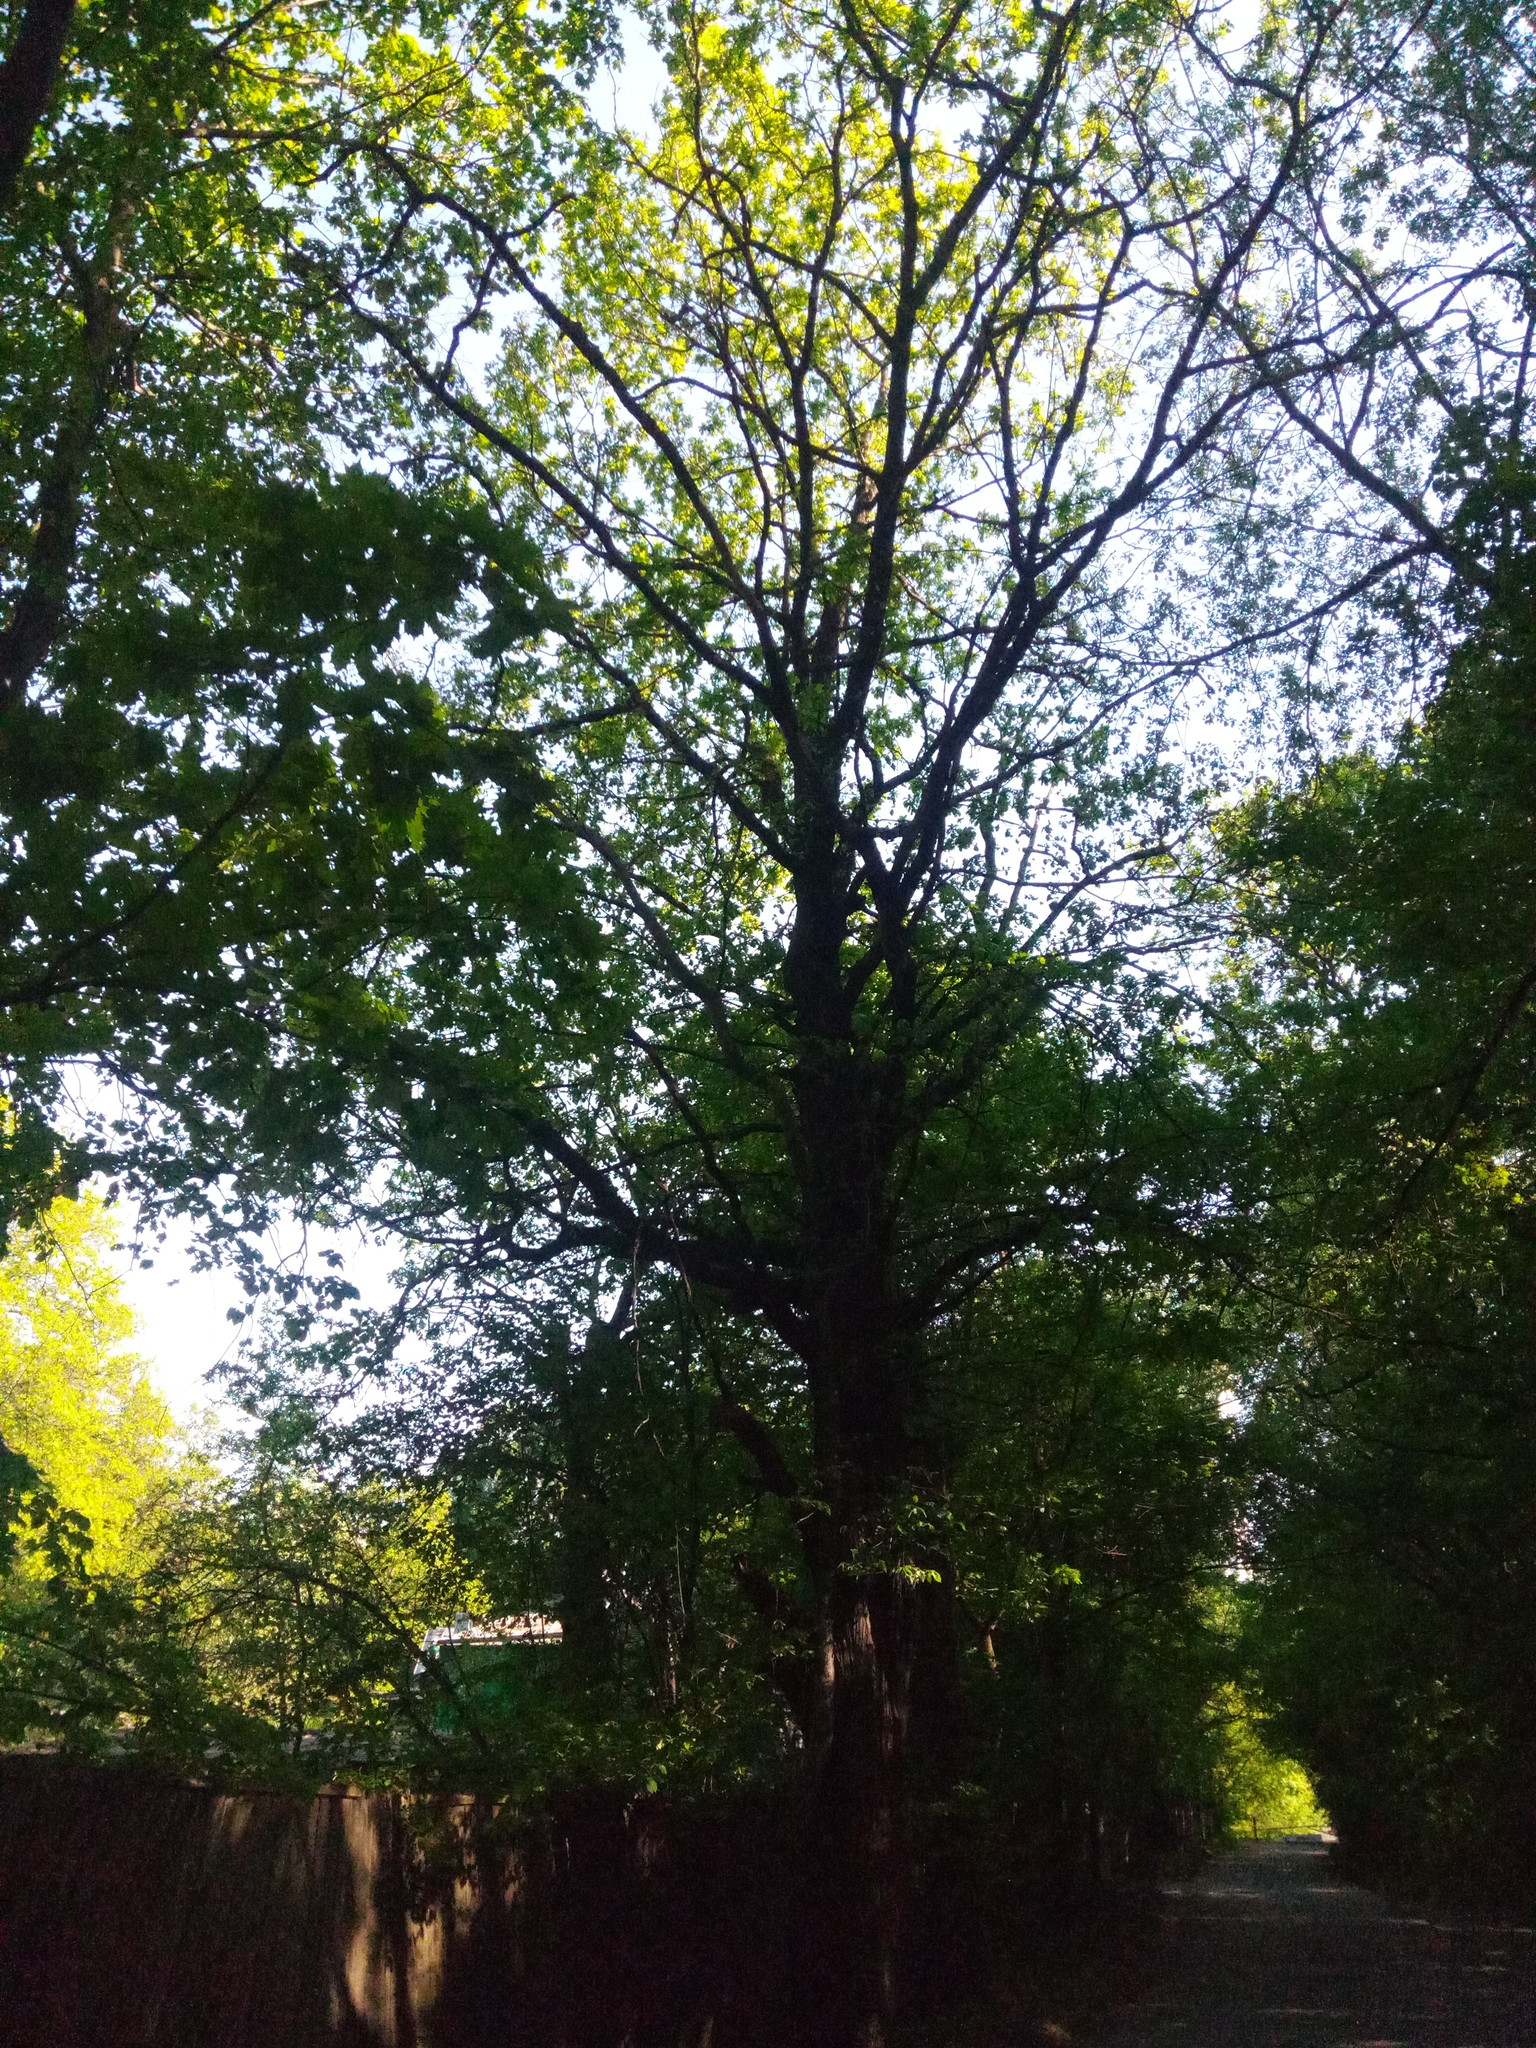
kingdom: Plantae
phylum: Tracheophyta
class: Magnoliopsida
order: Fagales
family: Fagaceae
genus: Quercus
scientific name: Quercus robur
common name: Pedunculate oak
